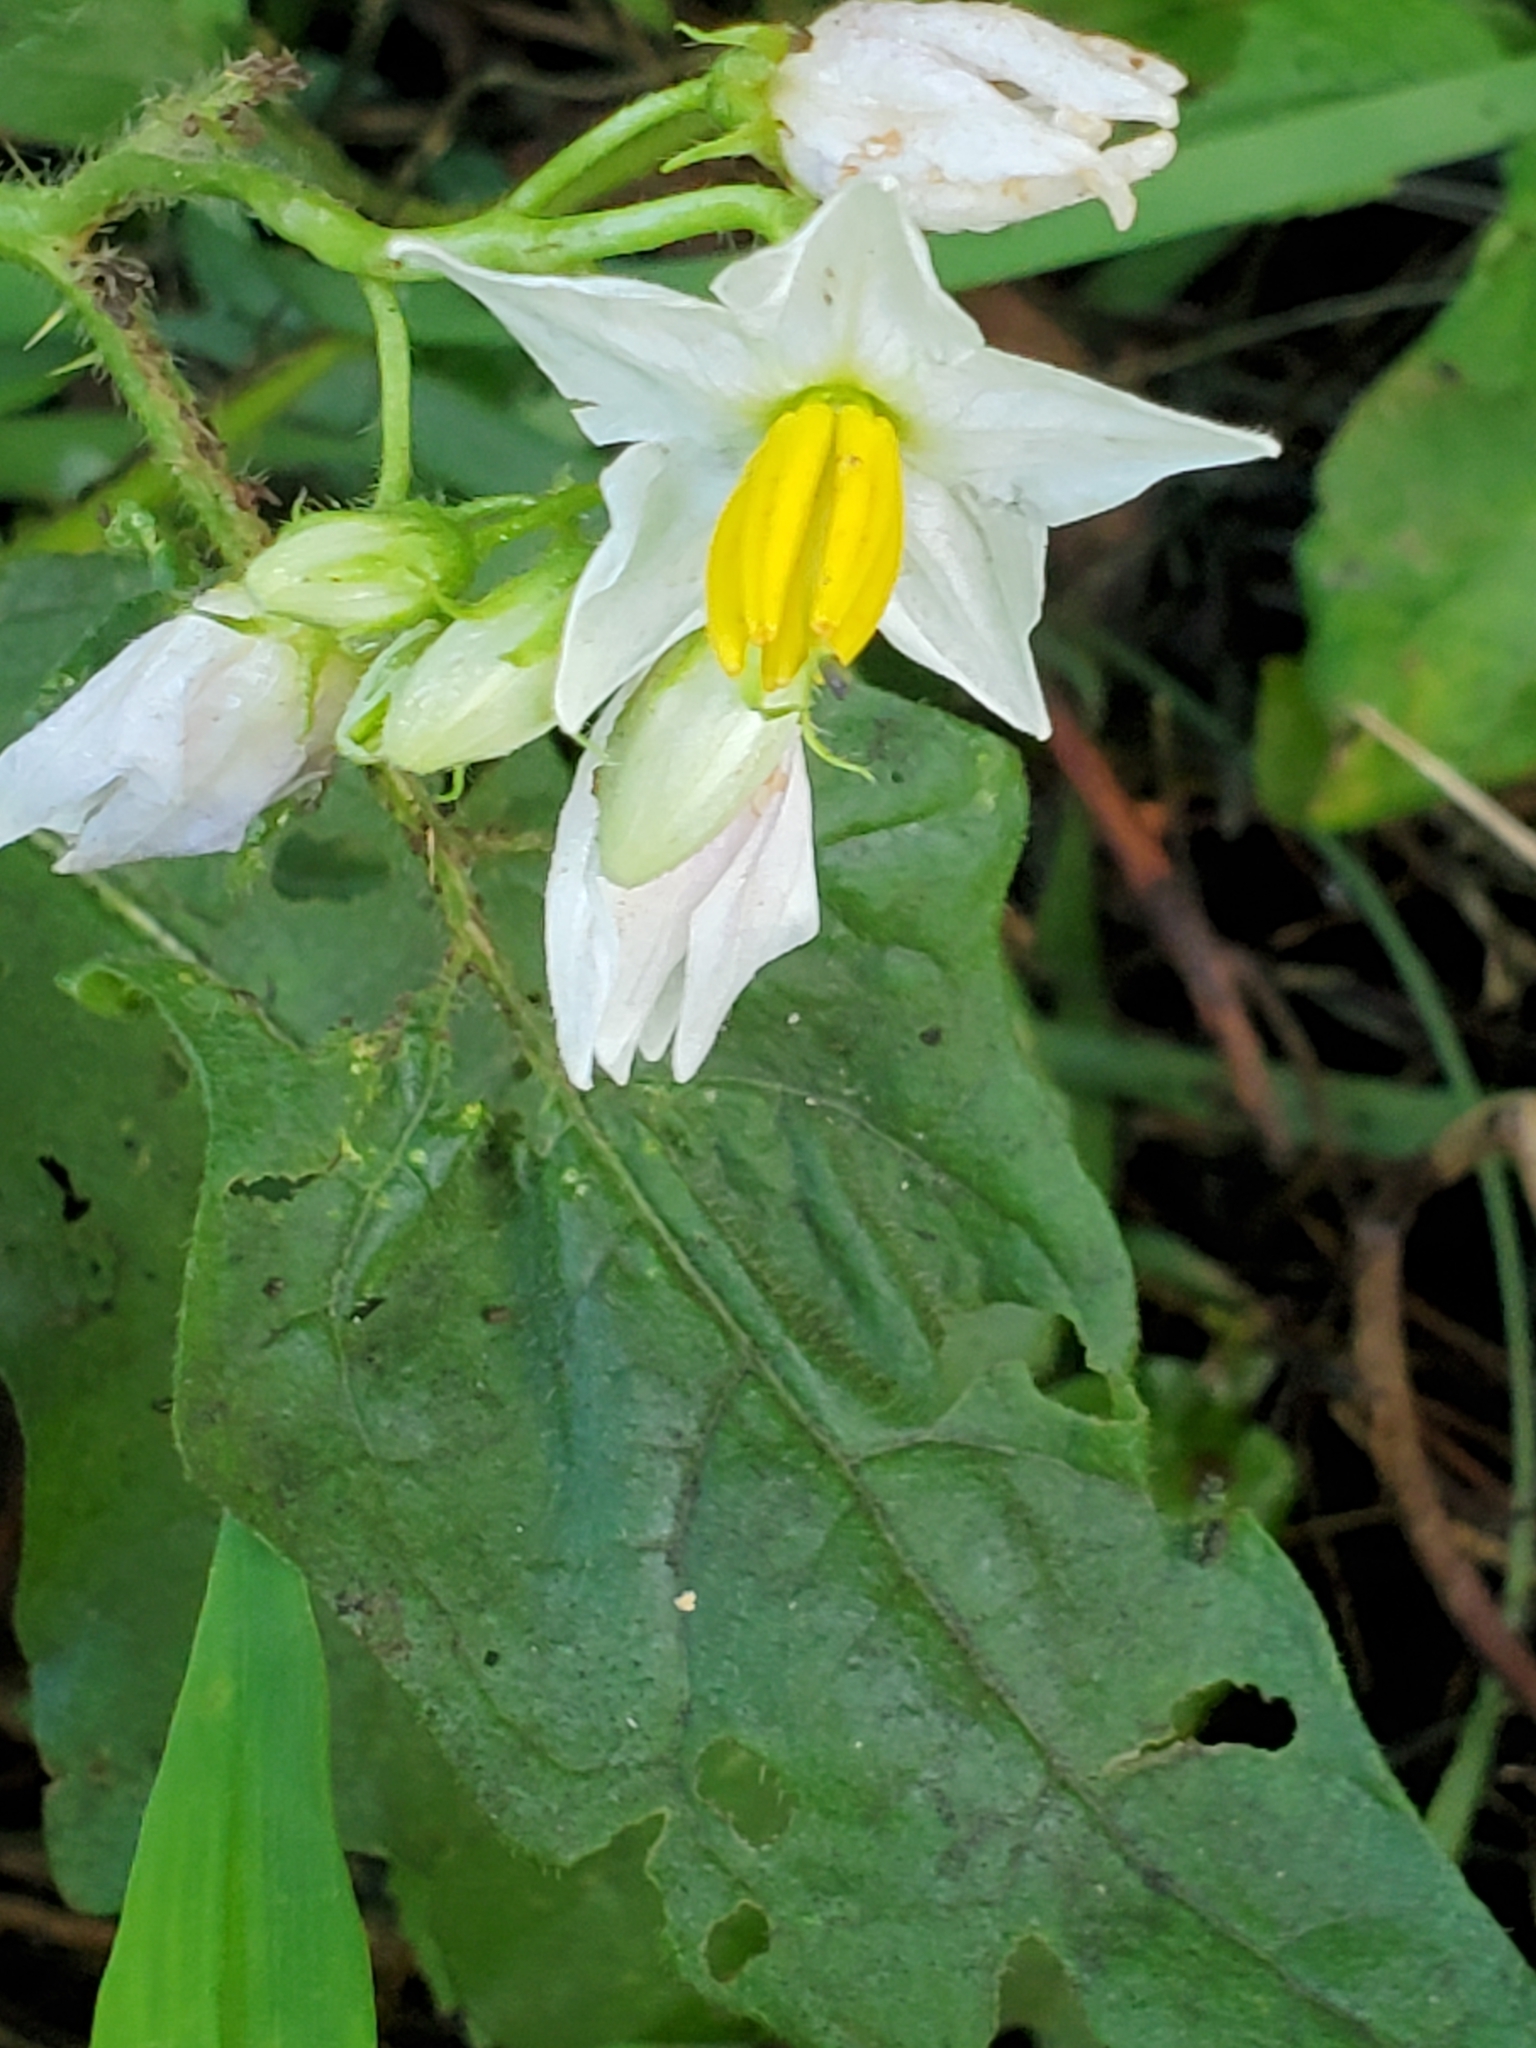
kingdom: Plantae
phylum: Tracheophyta
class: Magnoliopsida
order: Solanales
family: Solanaceae
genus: Solanum
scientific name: Solanum carolinense
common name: Horse-nettle
